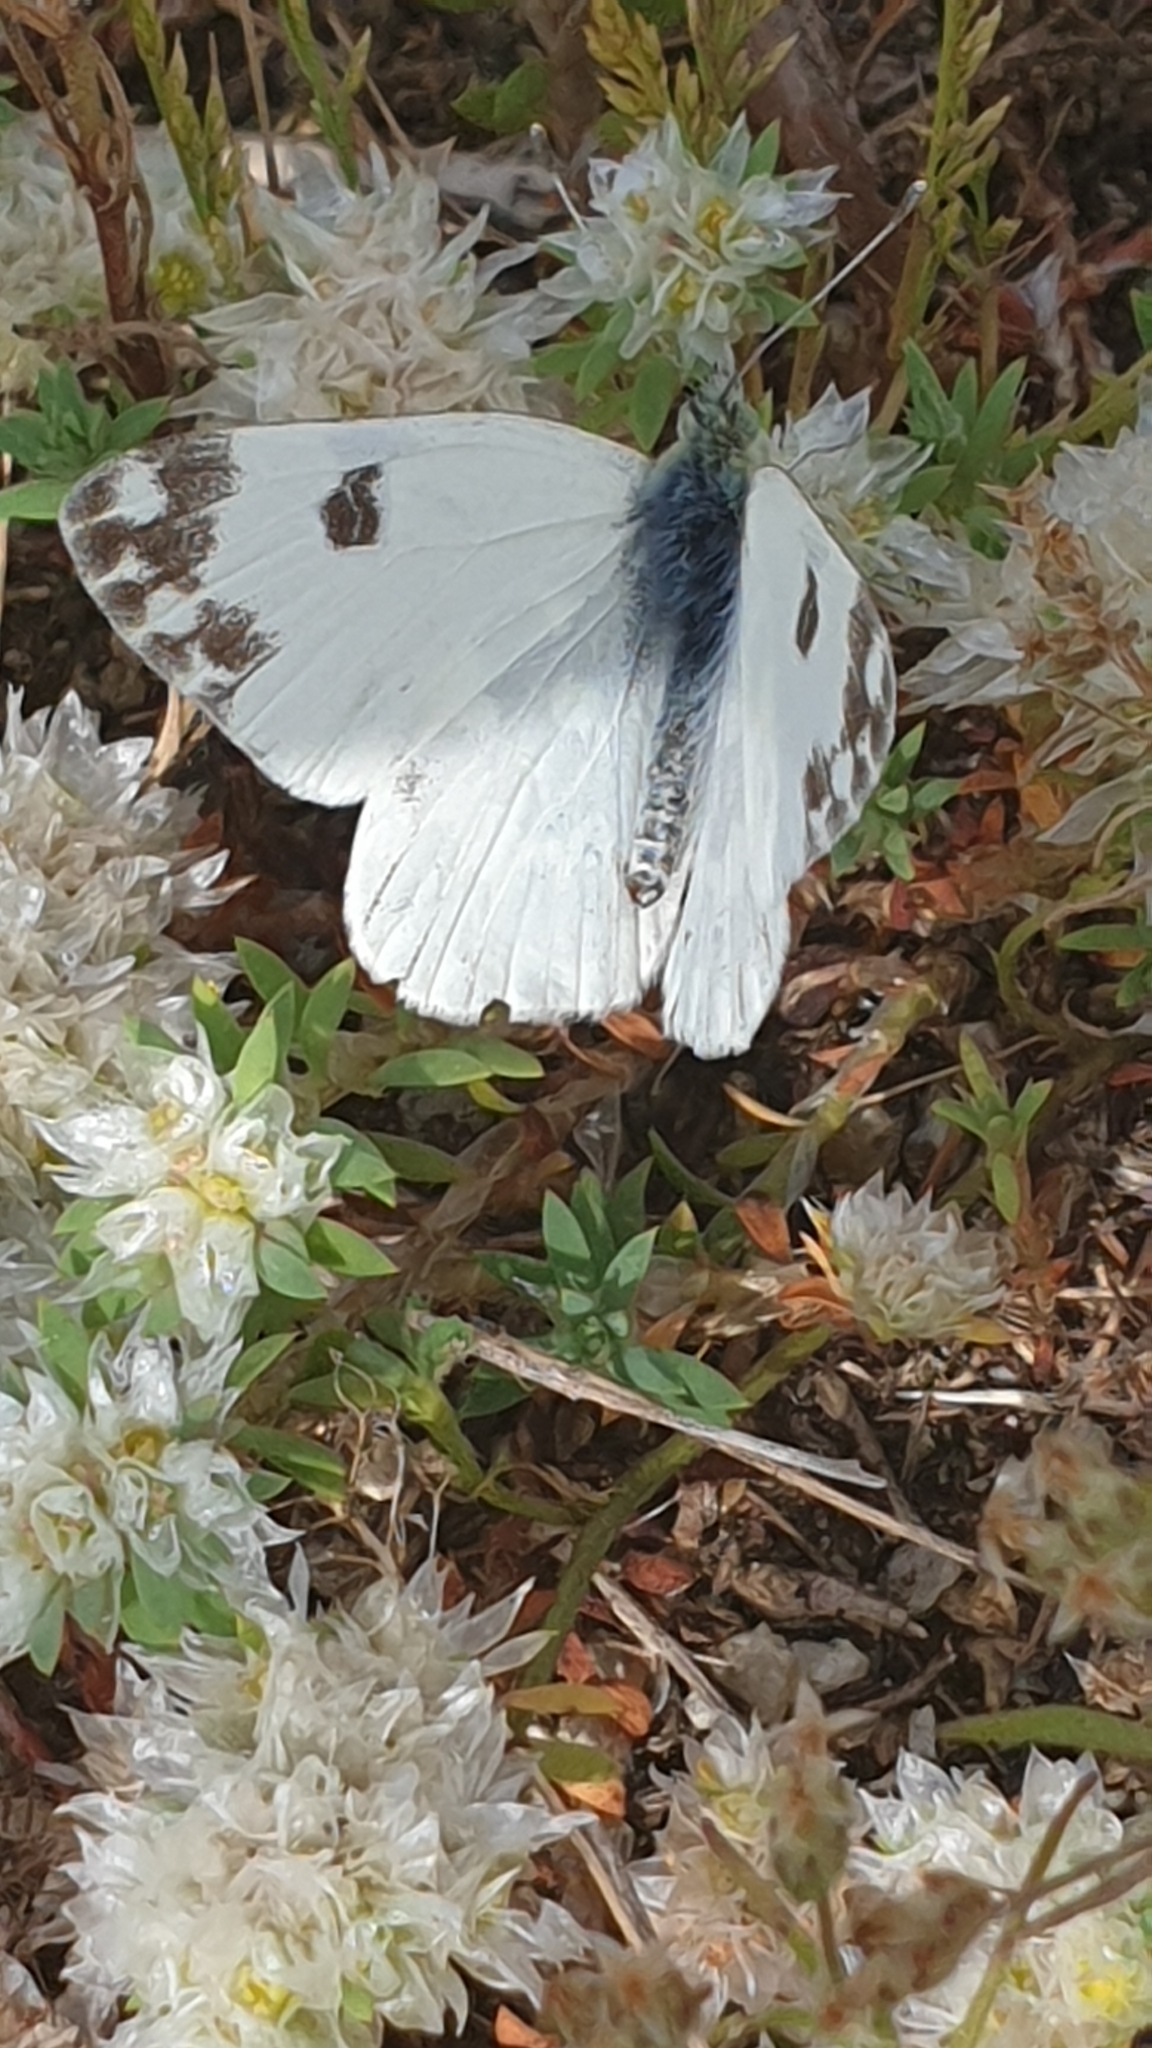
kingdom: Animalia
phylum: Arthropoda
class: Insecta
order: Lepidoptera
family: Pieridae
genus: Pontia
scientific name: Pontia daplidice
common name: Bath white
